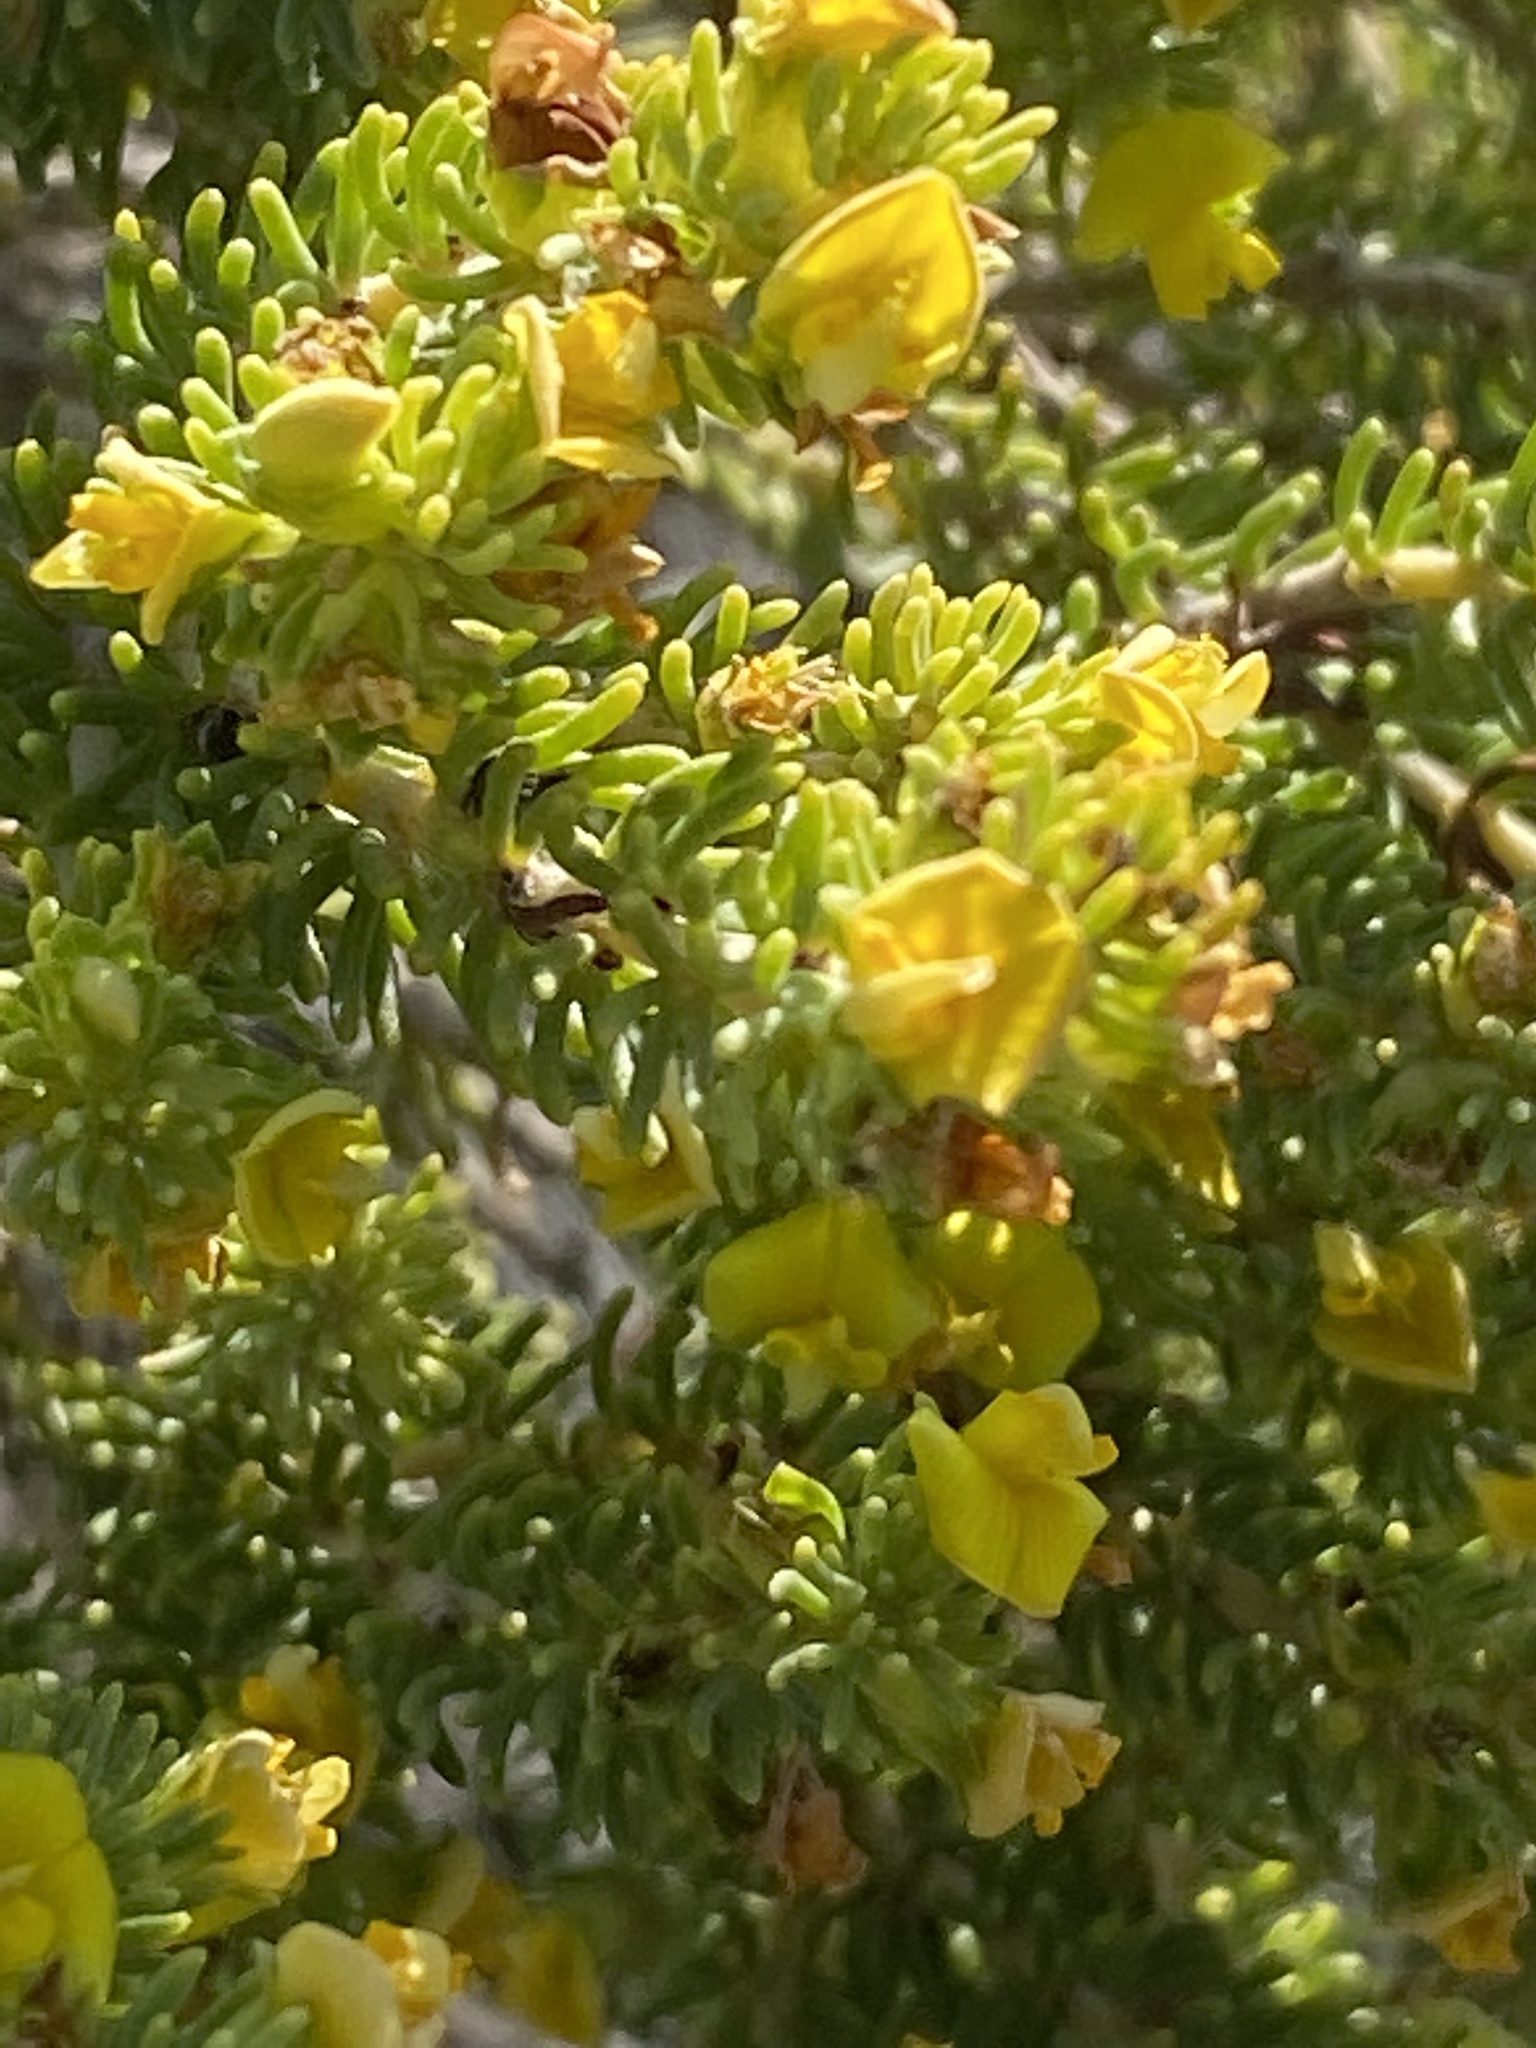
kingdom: Plantae
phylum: Tracheophyta
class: Magnoliopsida
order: Fabales
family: Fabaceae
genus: Aspalathus
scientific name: Aspalathus pallescens
